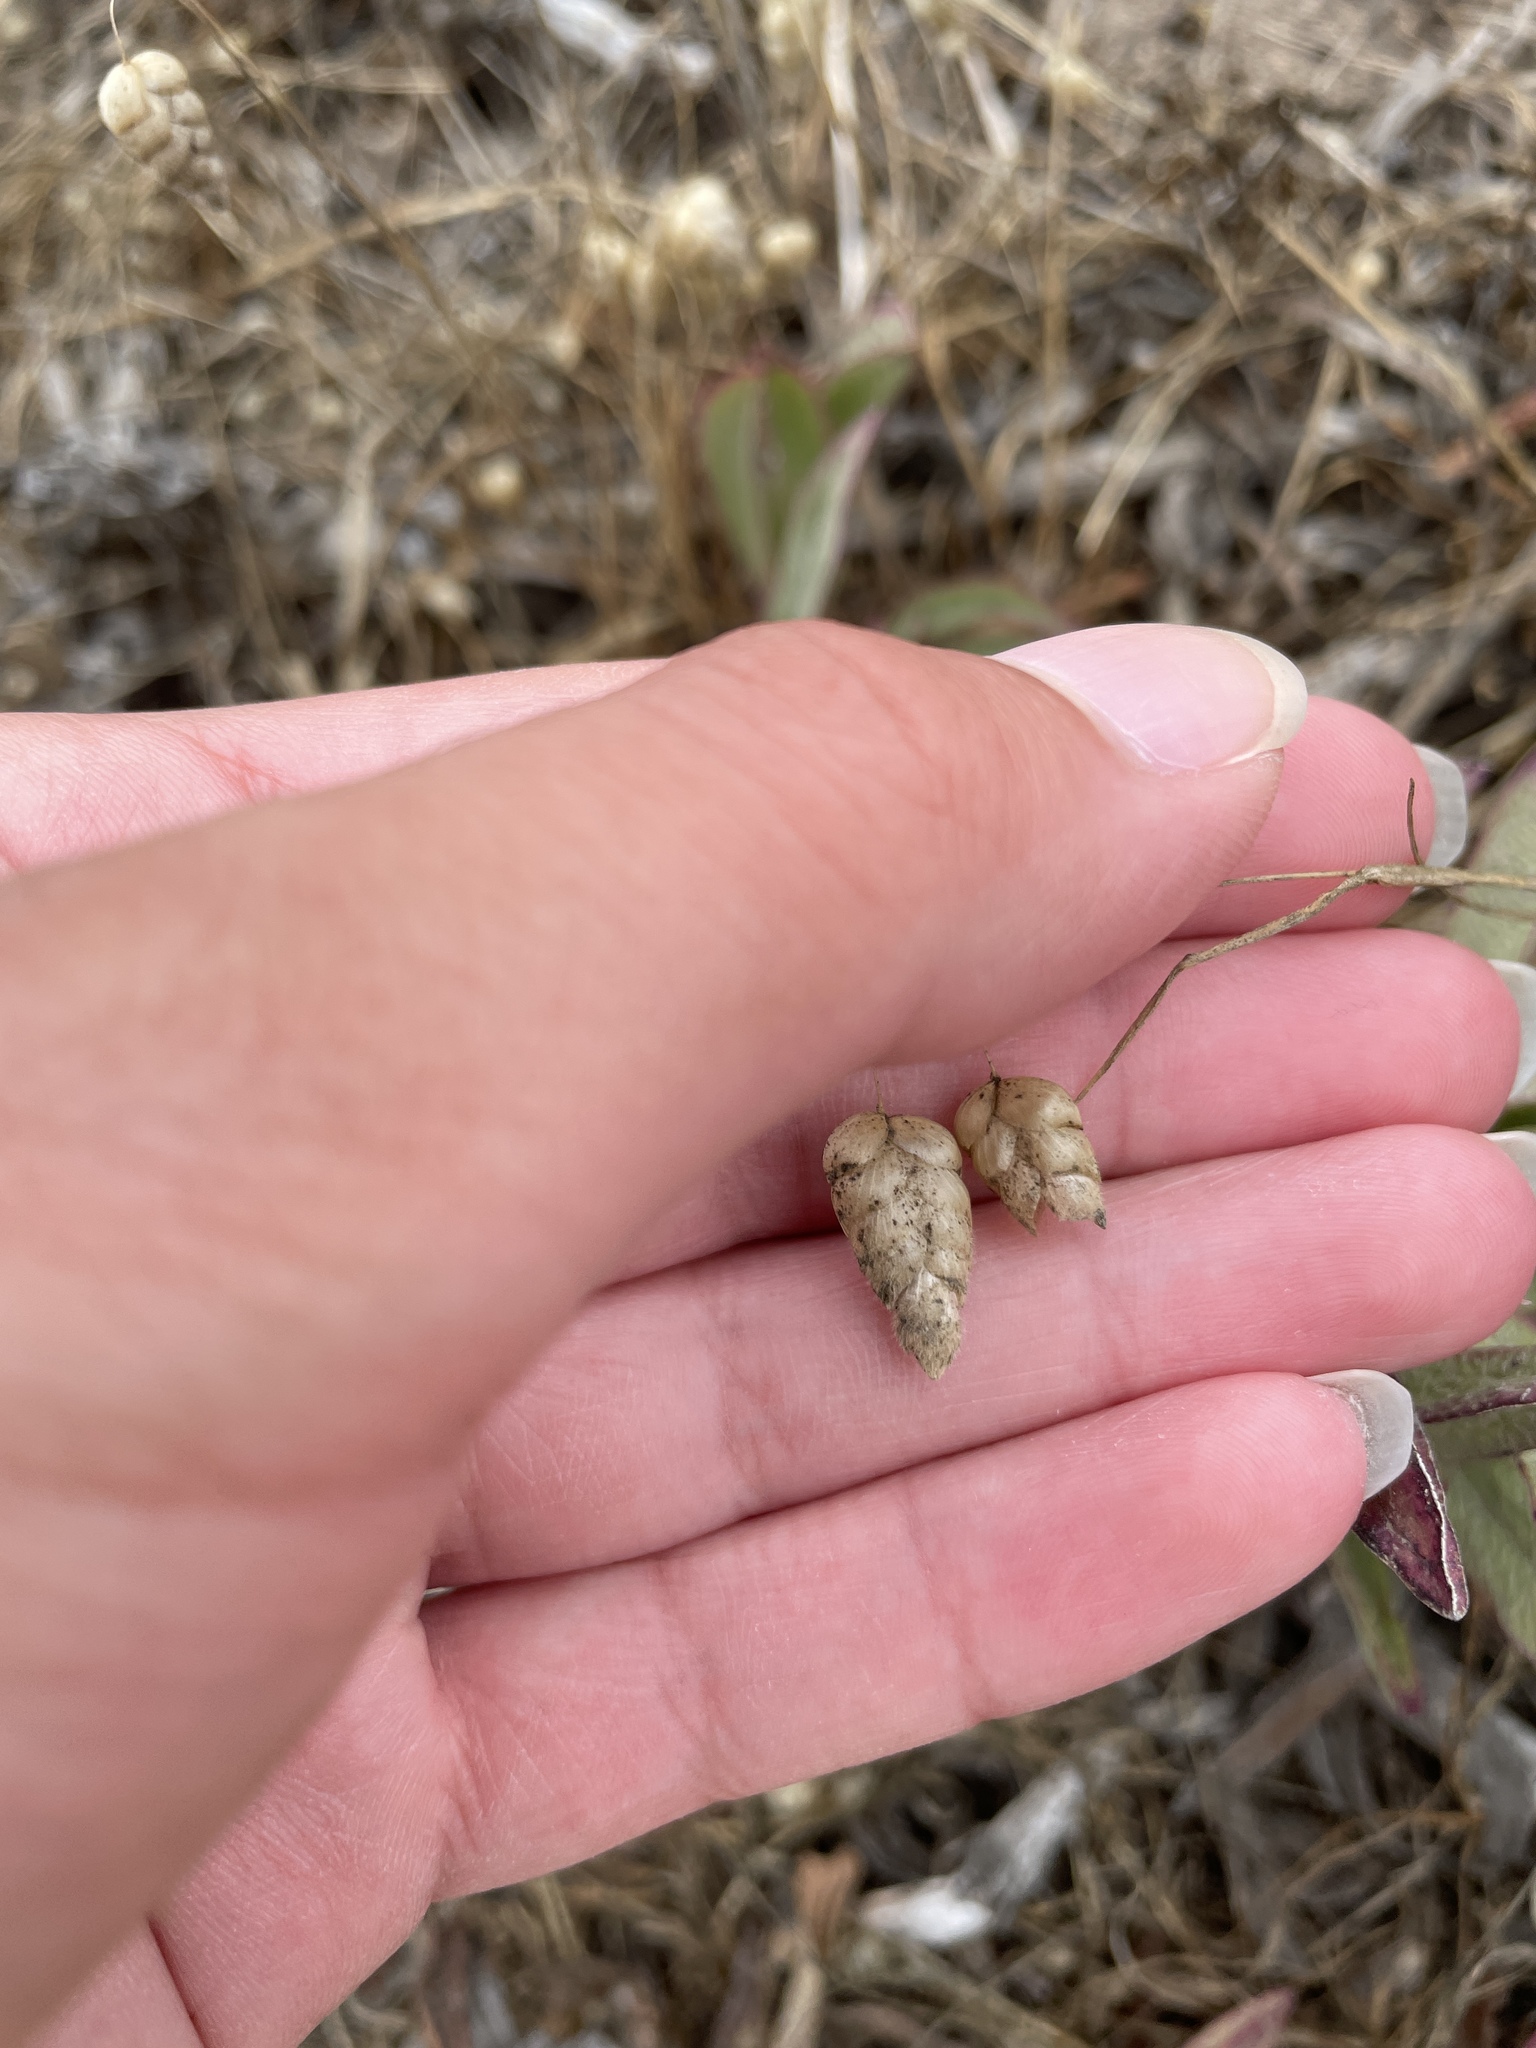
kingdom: Plantae
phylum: Tracheophyta
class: Liliopsida
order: Poales
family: Poaceae
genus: Briza
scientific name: Briza maxima
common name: Big quakinggrass
